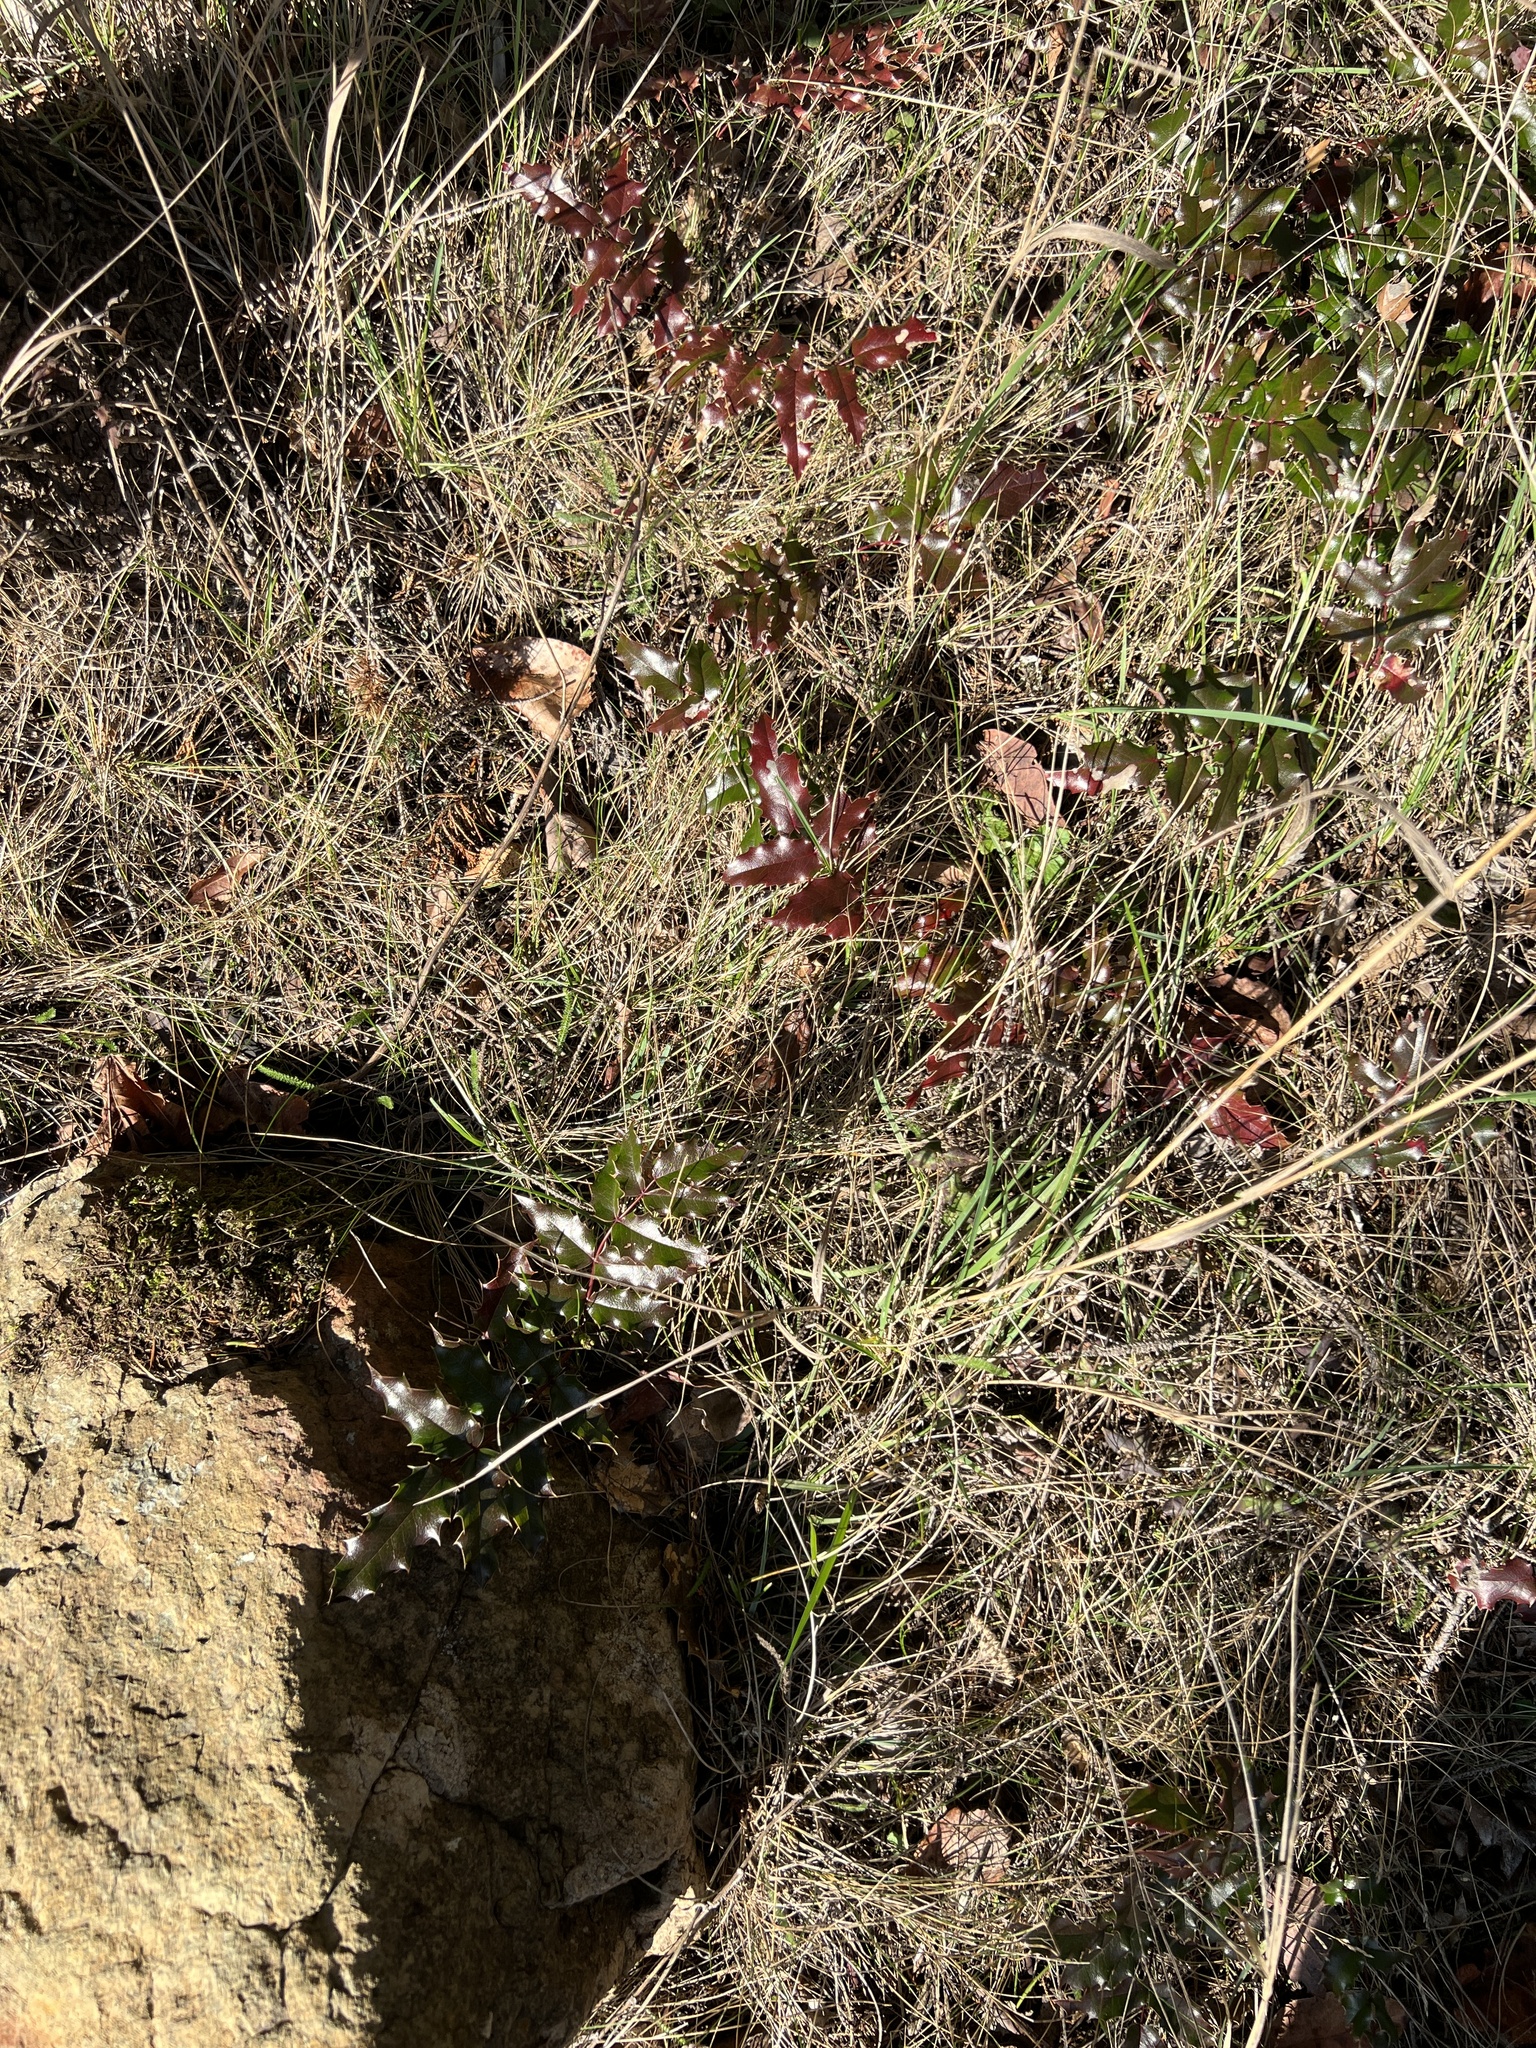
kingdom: Plantae
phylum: Tracheophyta
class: Magnoliopsida
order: Ranunculales
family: Berberidaceae
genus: Mahonia
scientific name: Mahonia aquifolium
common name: Oregon-grape
